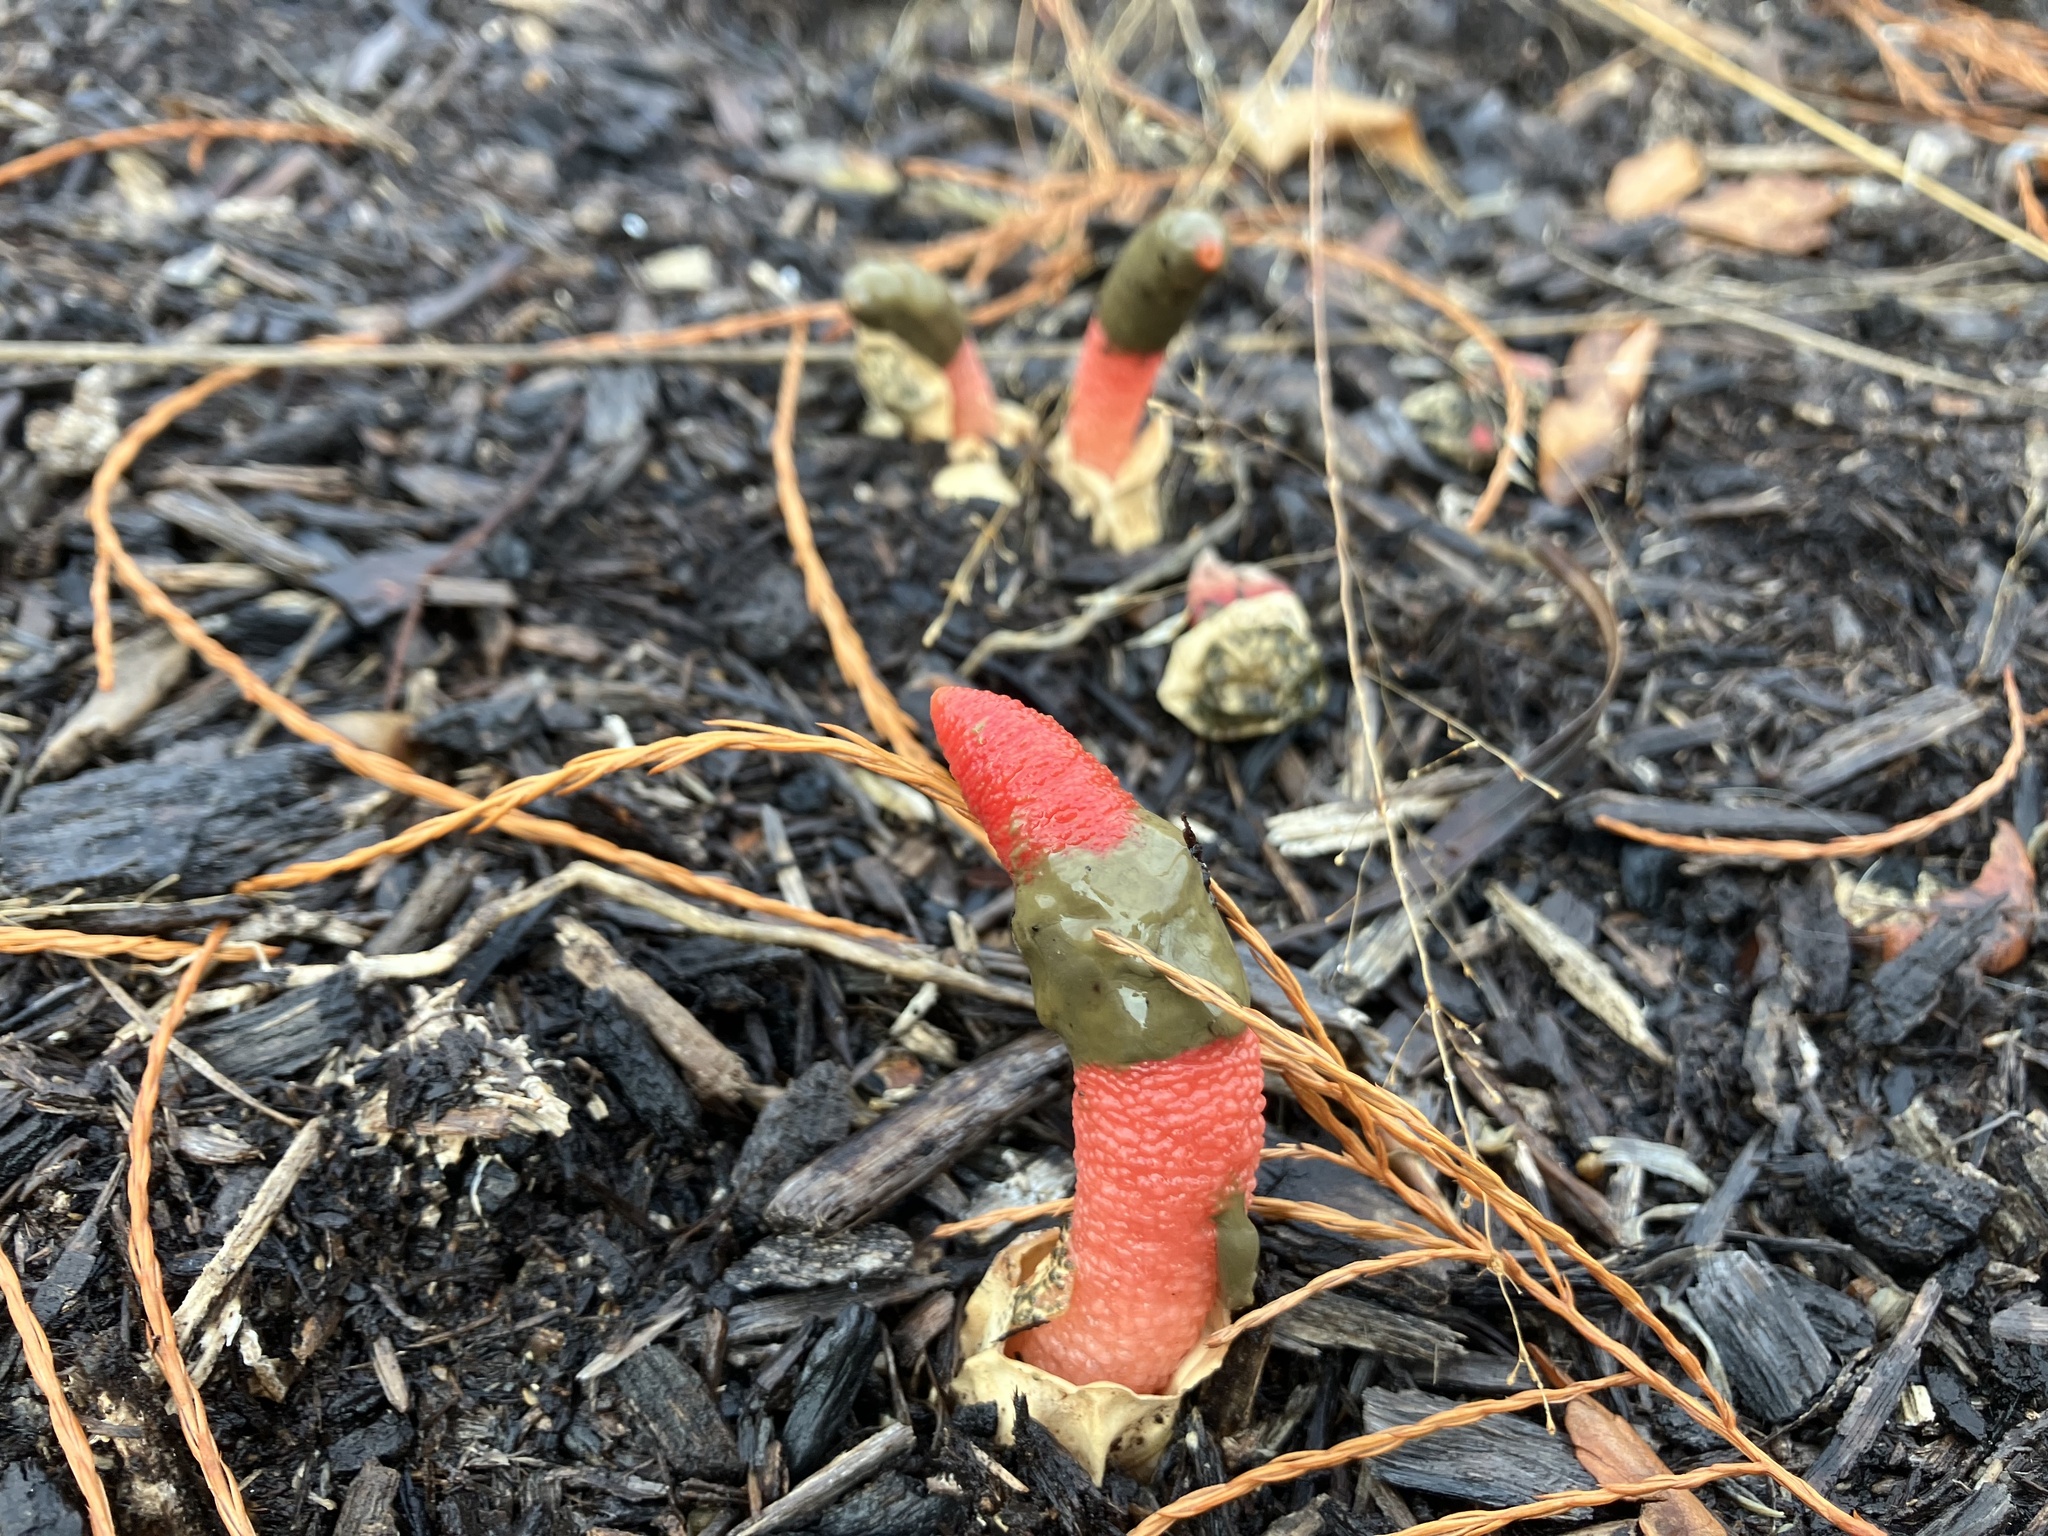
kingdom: Fungi
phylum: Basidiomycota
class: Agaricomycetes
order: Phallales
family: Phallaceae
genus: Mutinus
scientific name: Mutinus elegans
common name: Devil's dipstick
